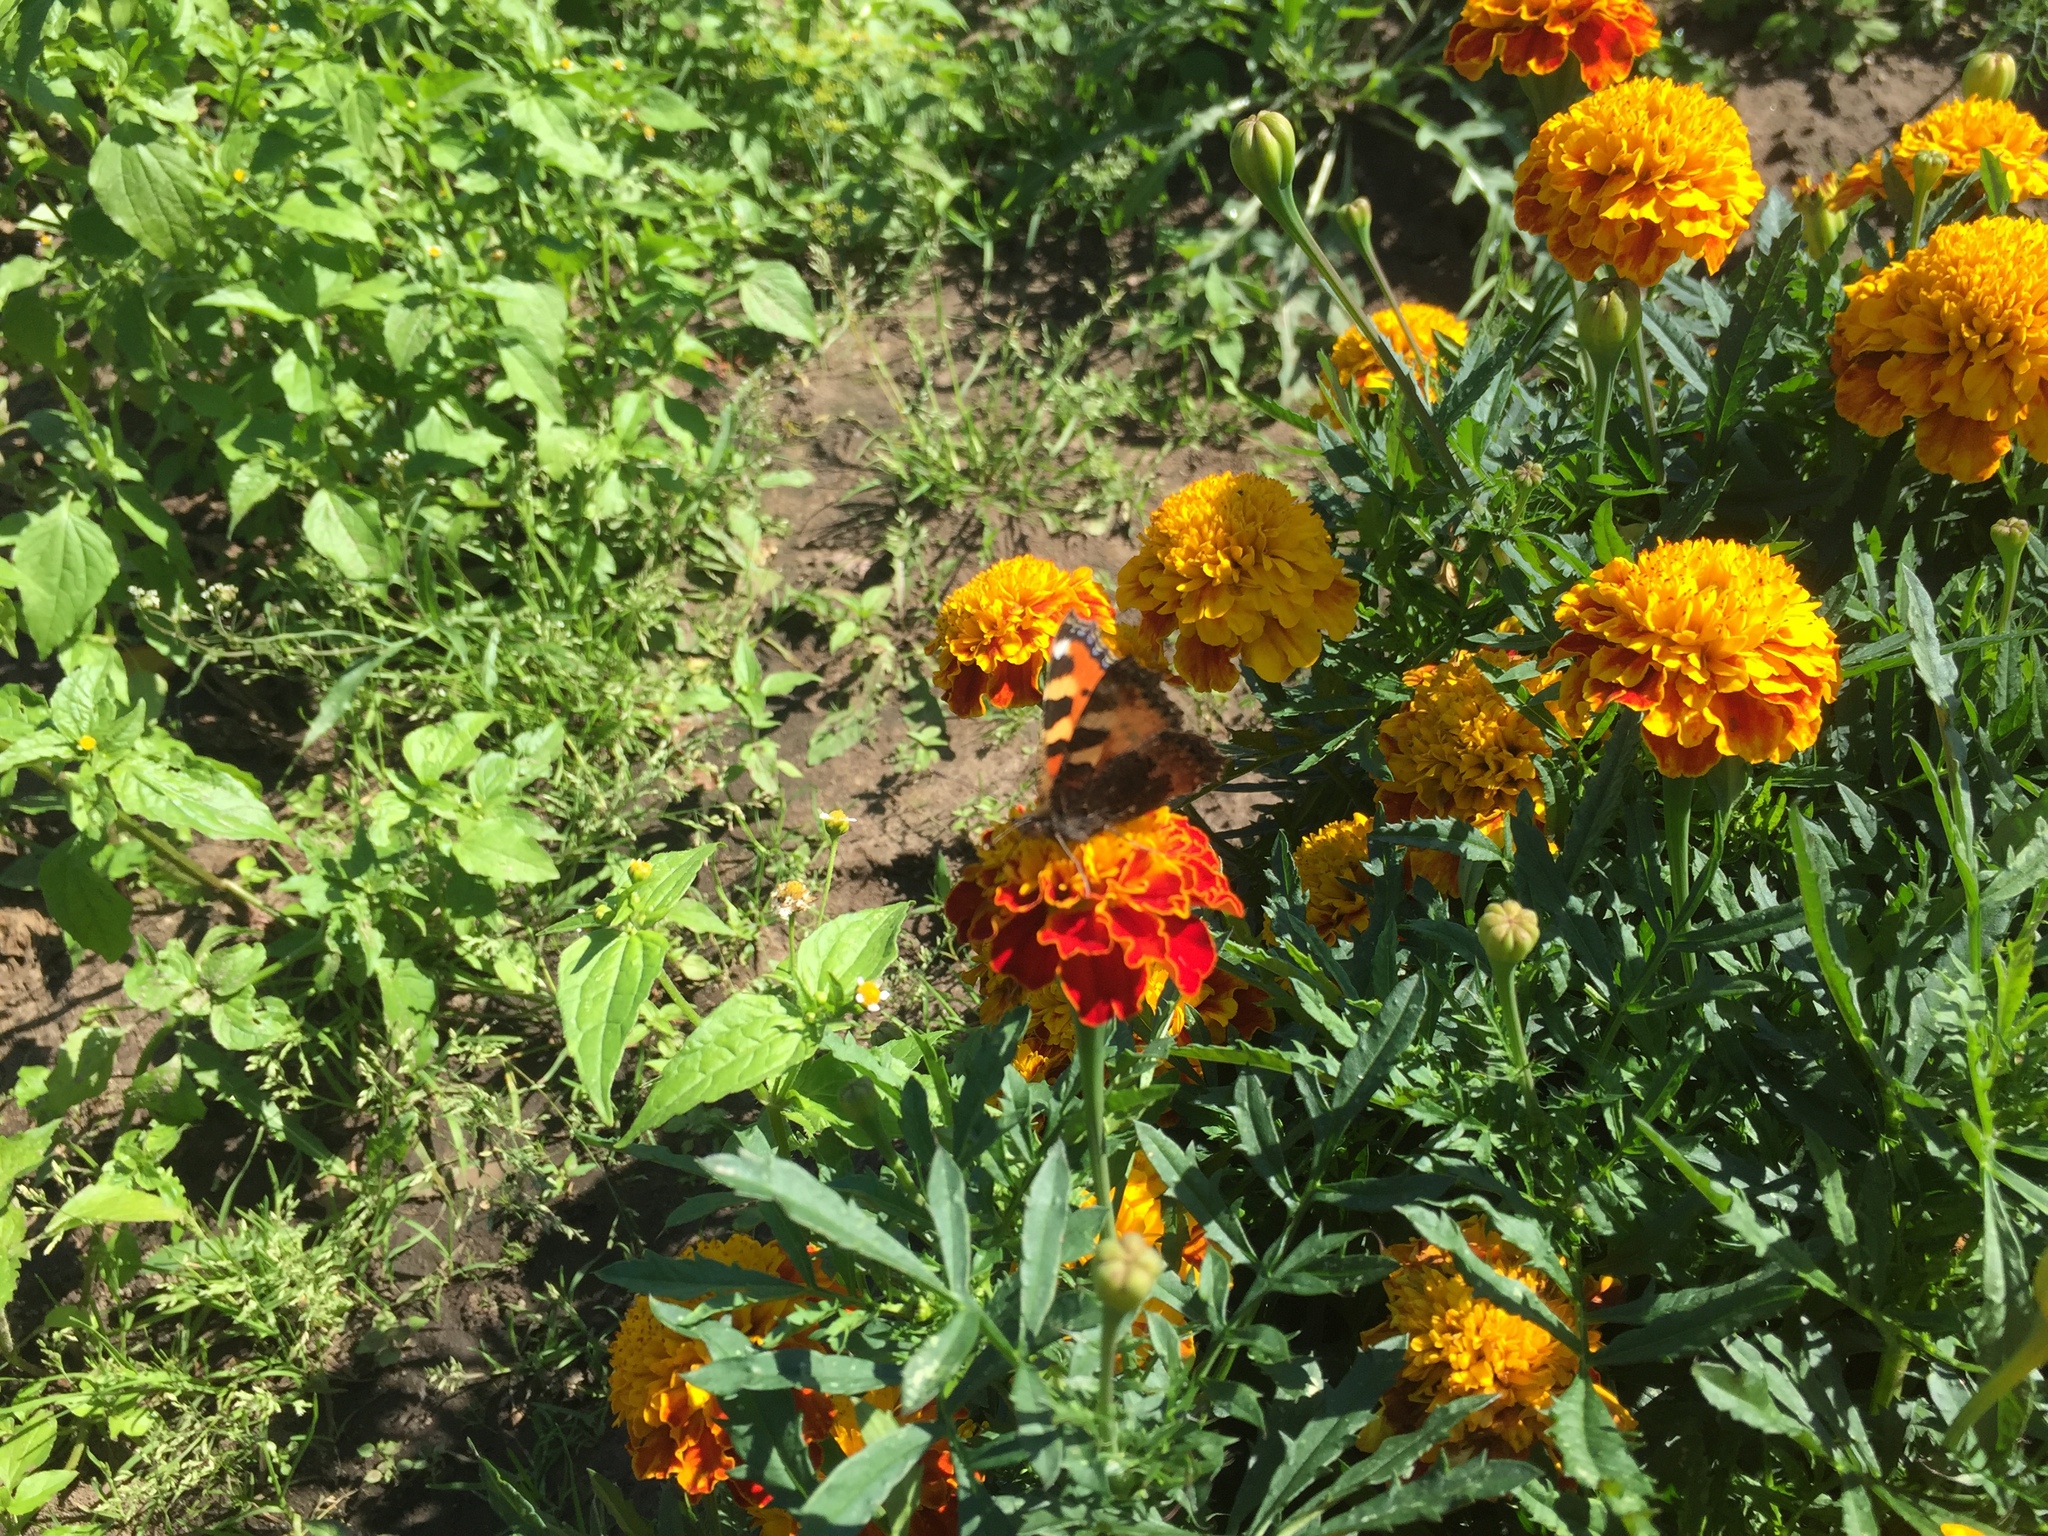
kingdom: Animalia
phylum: Arthropoda
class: Insecta
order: Lepidoptera
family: Nymphalidae
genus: Aglais
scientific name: Aglais urticae
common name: Small tortoiseshell
